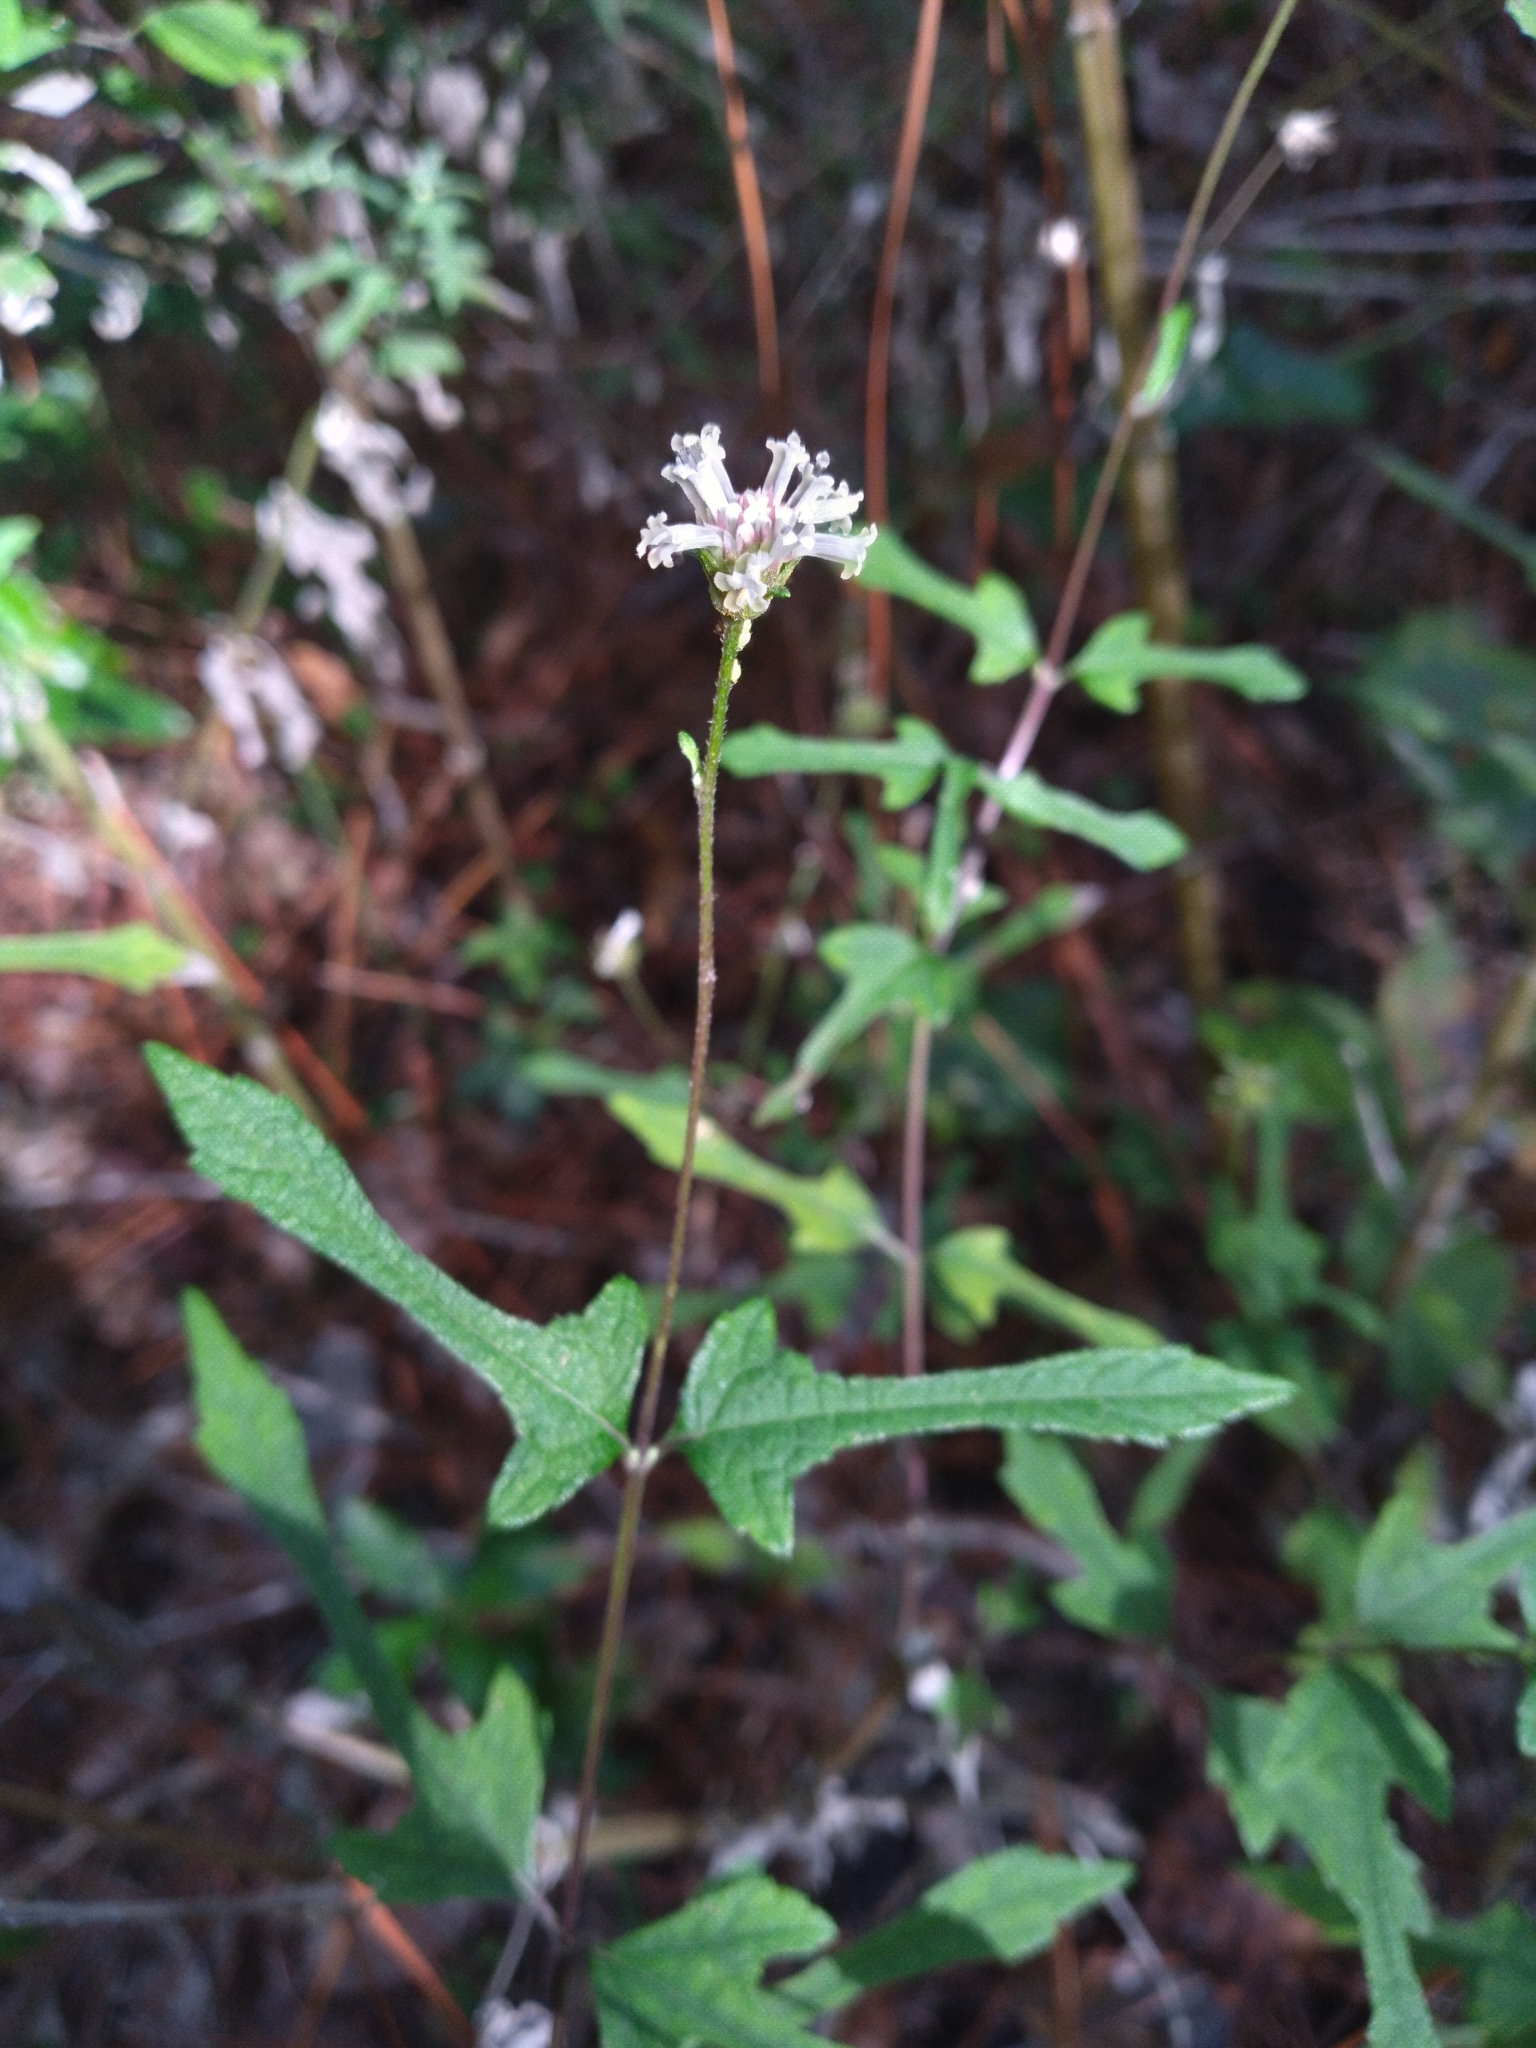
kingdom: Plantae
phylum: Tracheophyta
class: Magnoliopsida
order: Asterales
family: Asteraceae
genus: Melanthera
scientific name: Melanthera nivea
